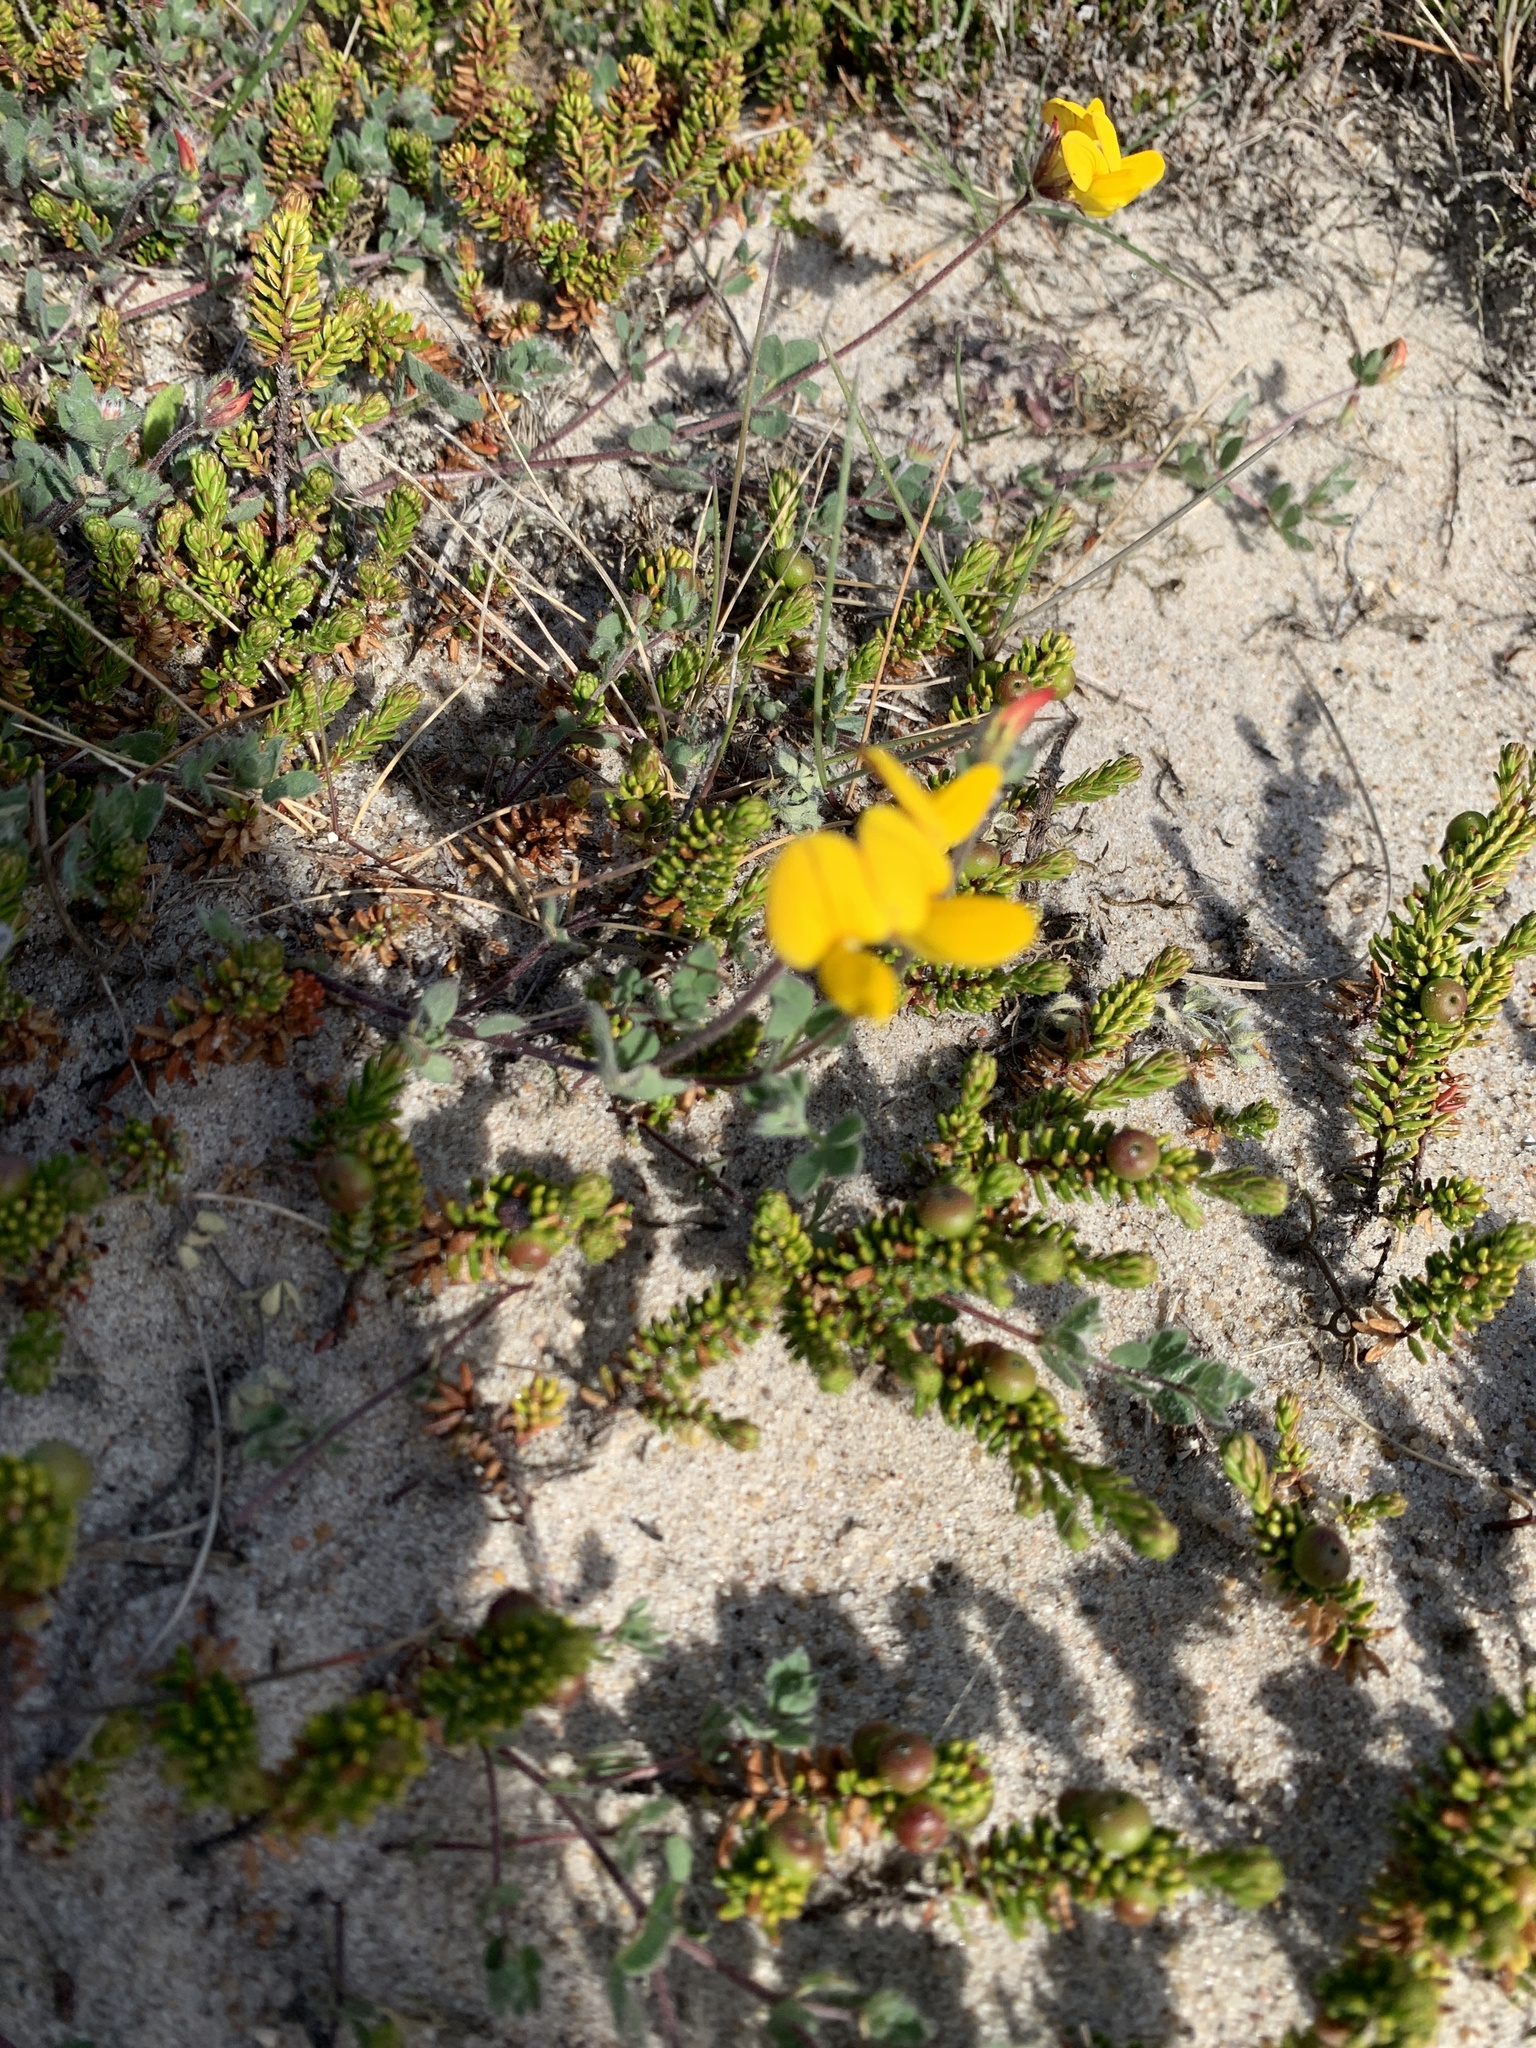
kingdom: Plantae
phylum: Tracheophyta
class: Magnoliopsida
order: Fabales
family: Fabaceae
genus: Lotus
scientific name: Lotus corniculatus
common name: Common bird's-foot-trefoil
